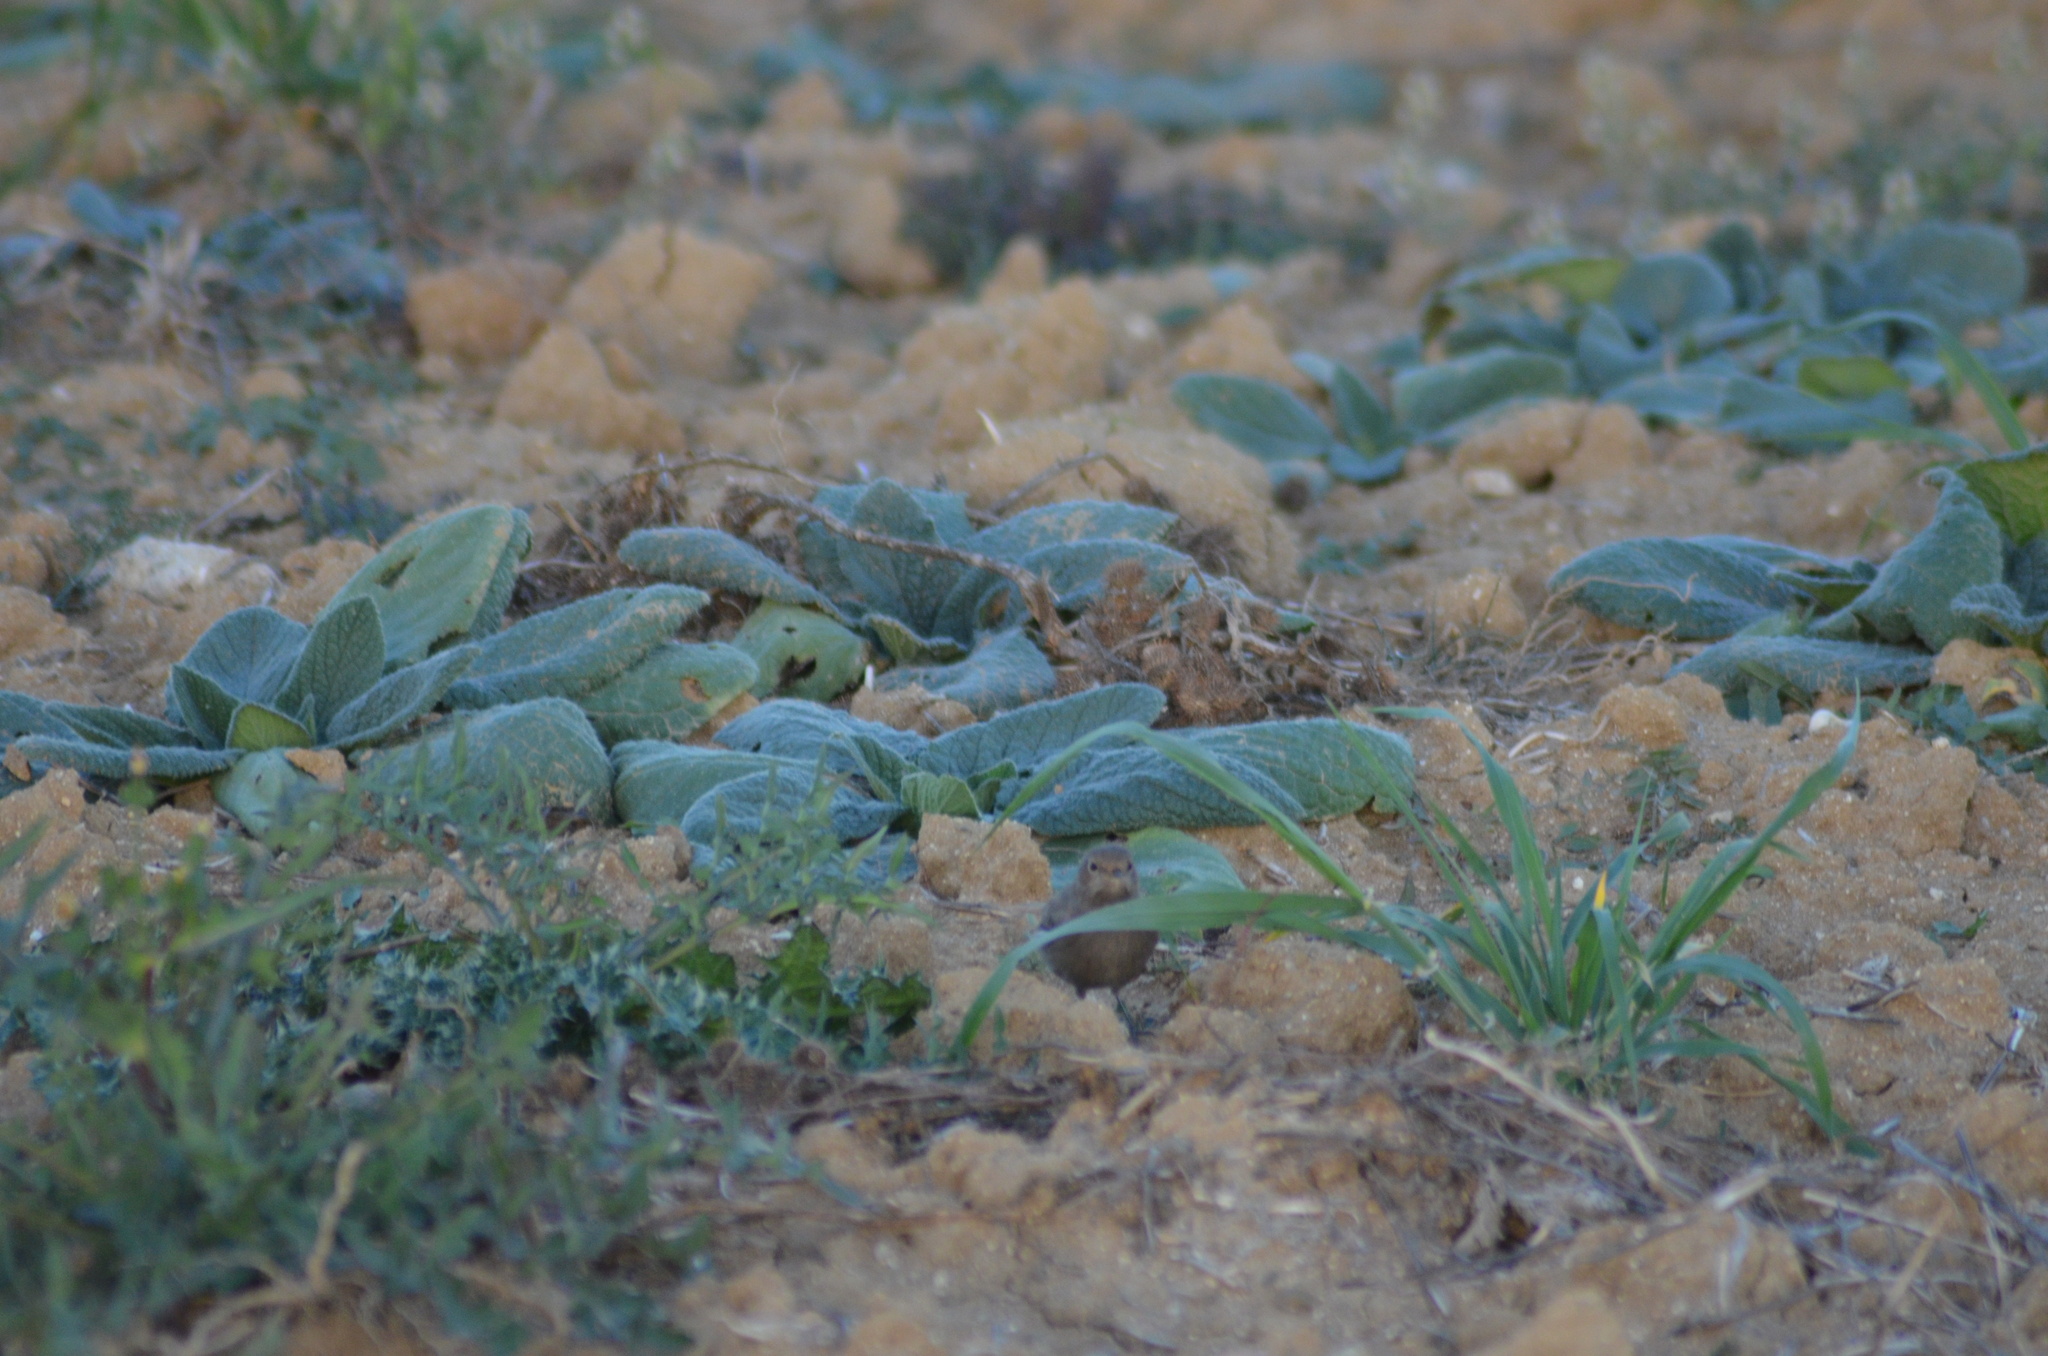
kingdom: Animalia
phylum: Chordata
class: Aves
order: Passeriformes
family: Muscicapidae
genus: Phoenicurus
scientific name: Phoenicurus ochruros
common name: Black redstart
